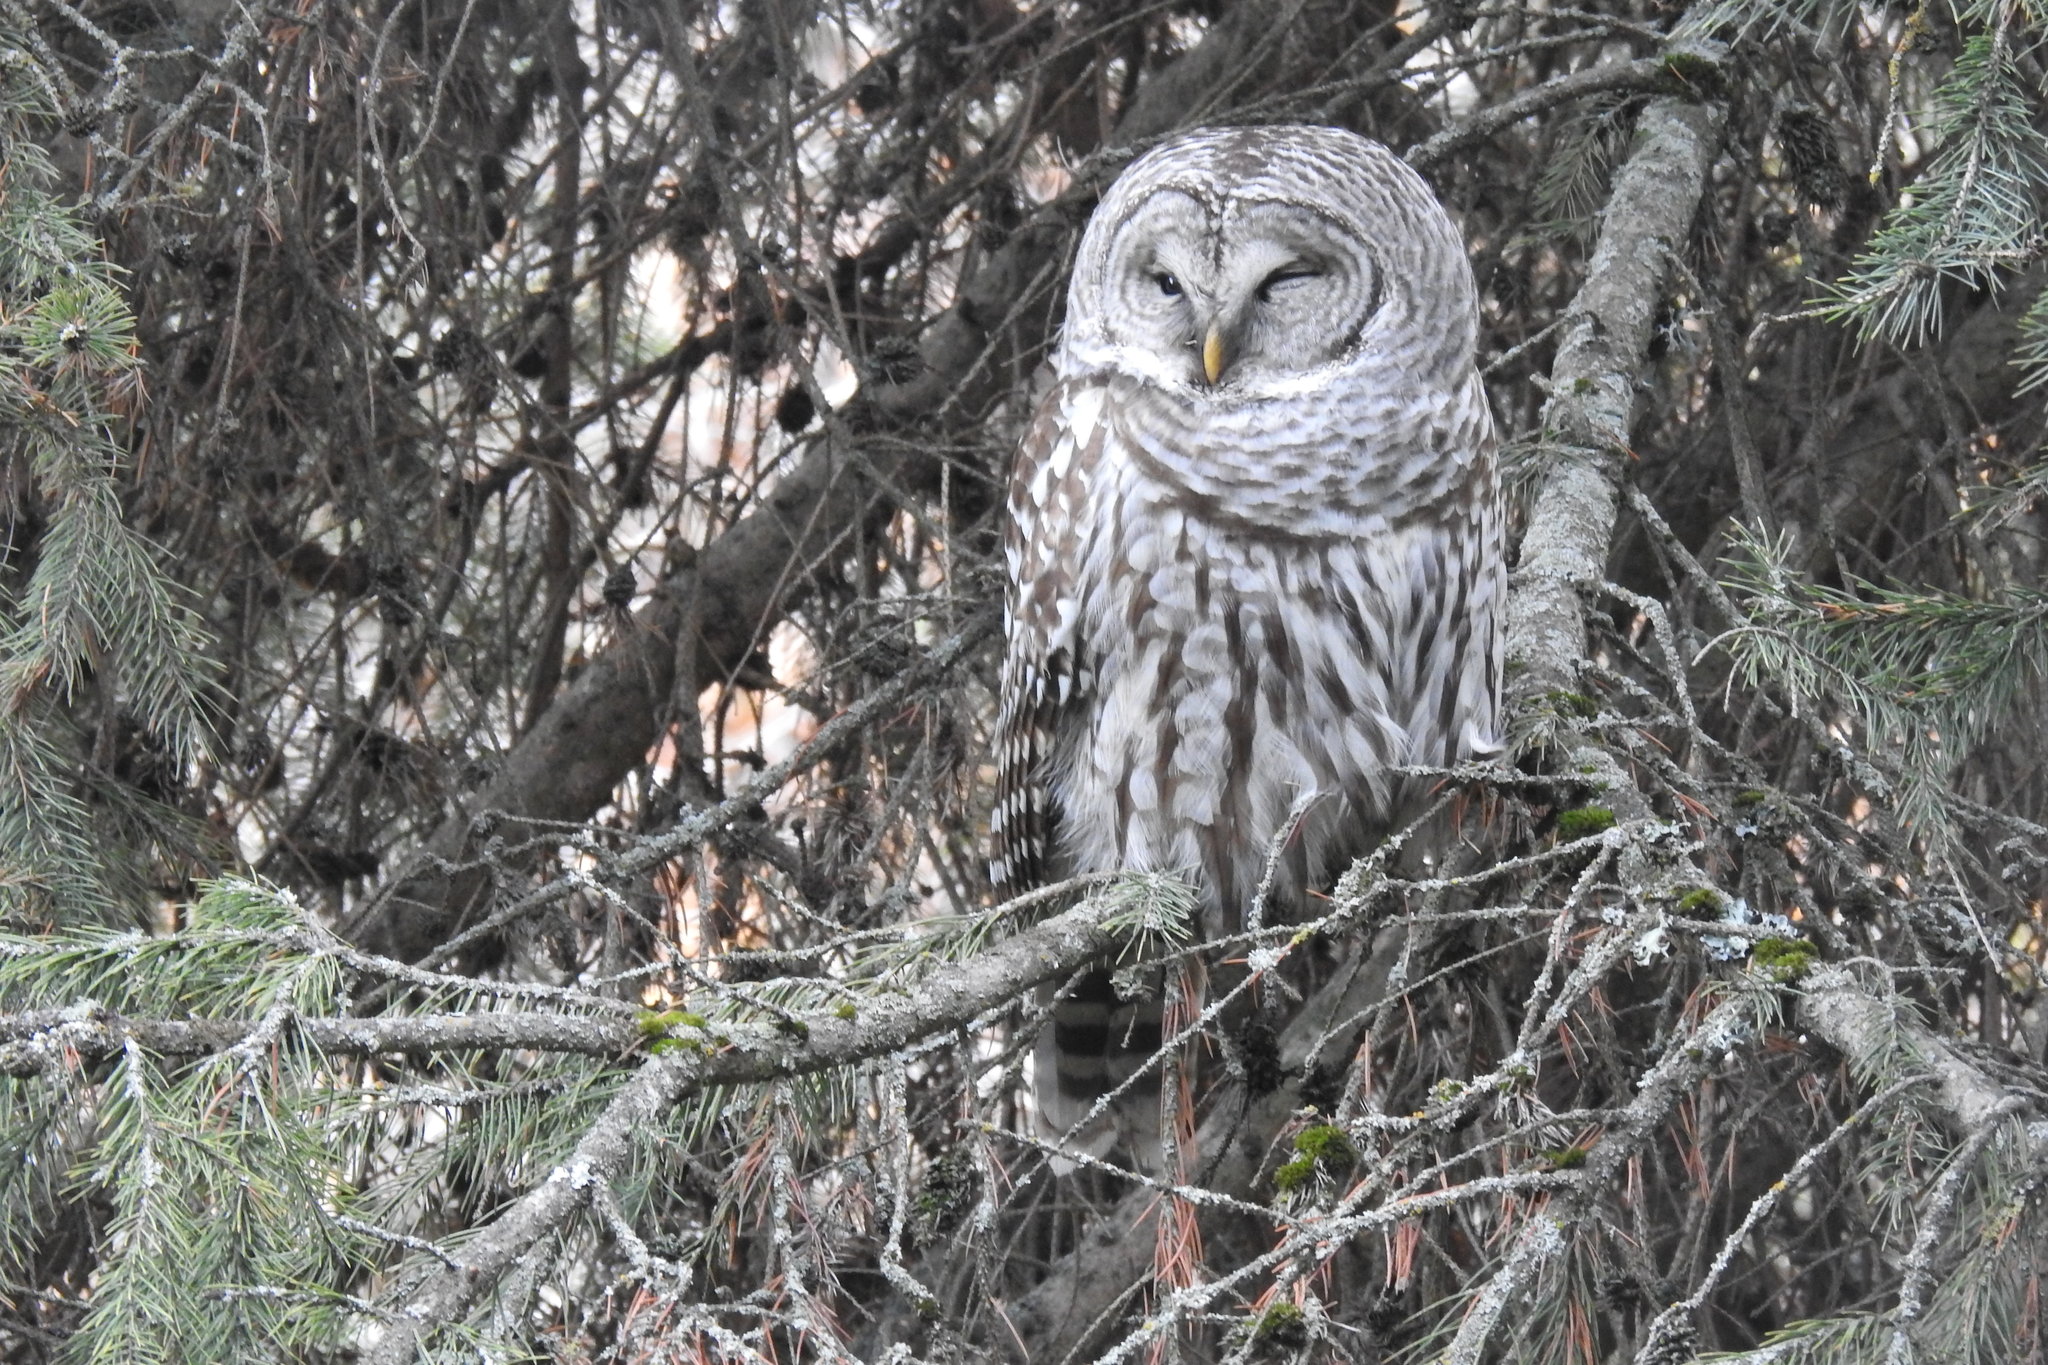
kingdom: Animalia
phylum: Chordata
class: Aves
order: Strigiformes
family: Strigidae
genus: Strix
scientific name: Strix varia
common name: Barred owl
